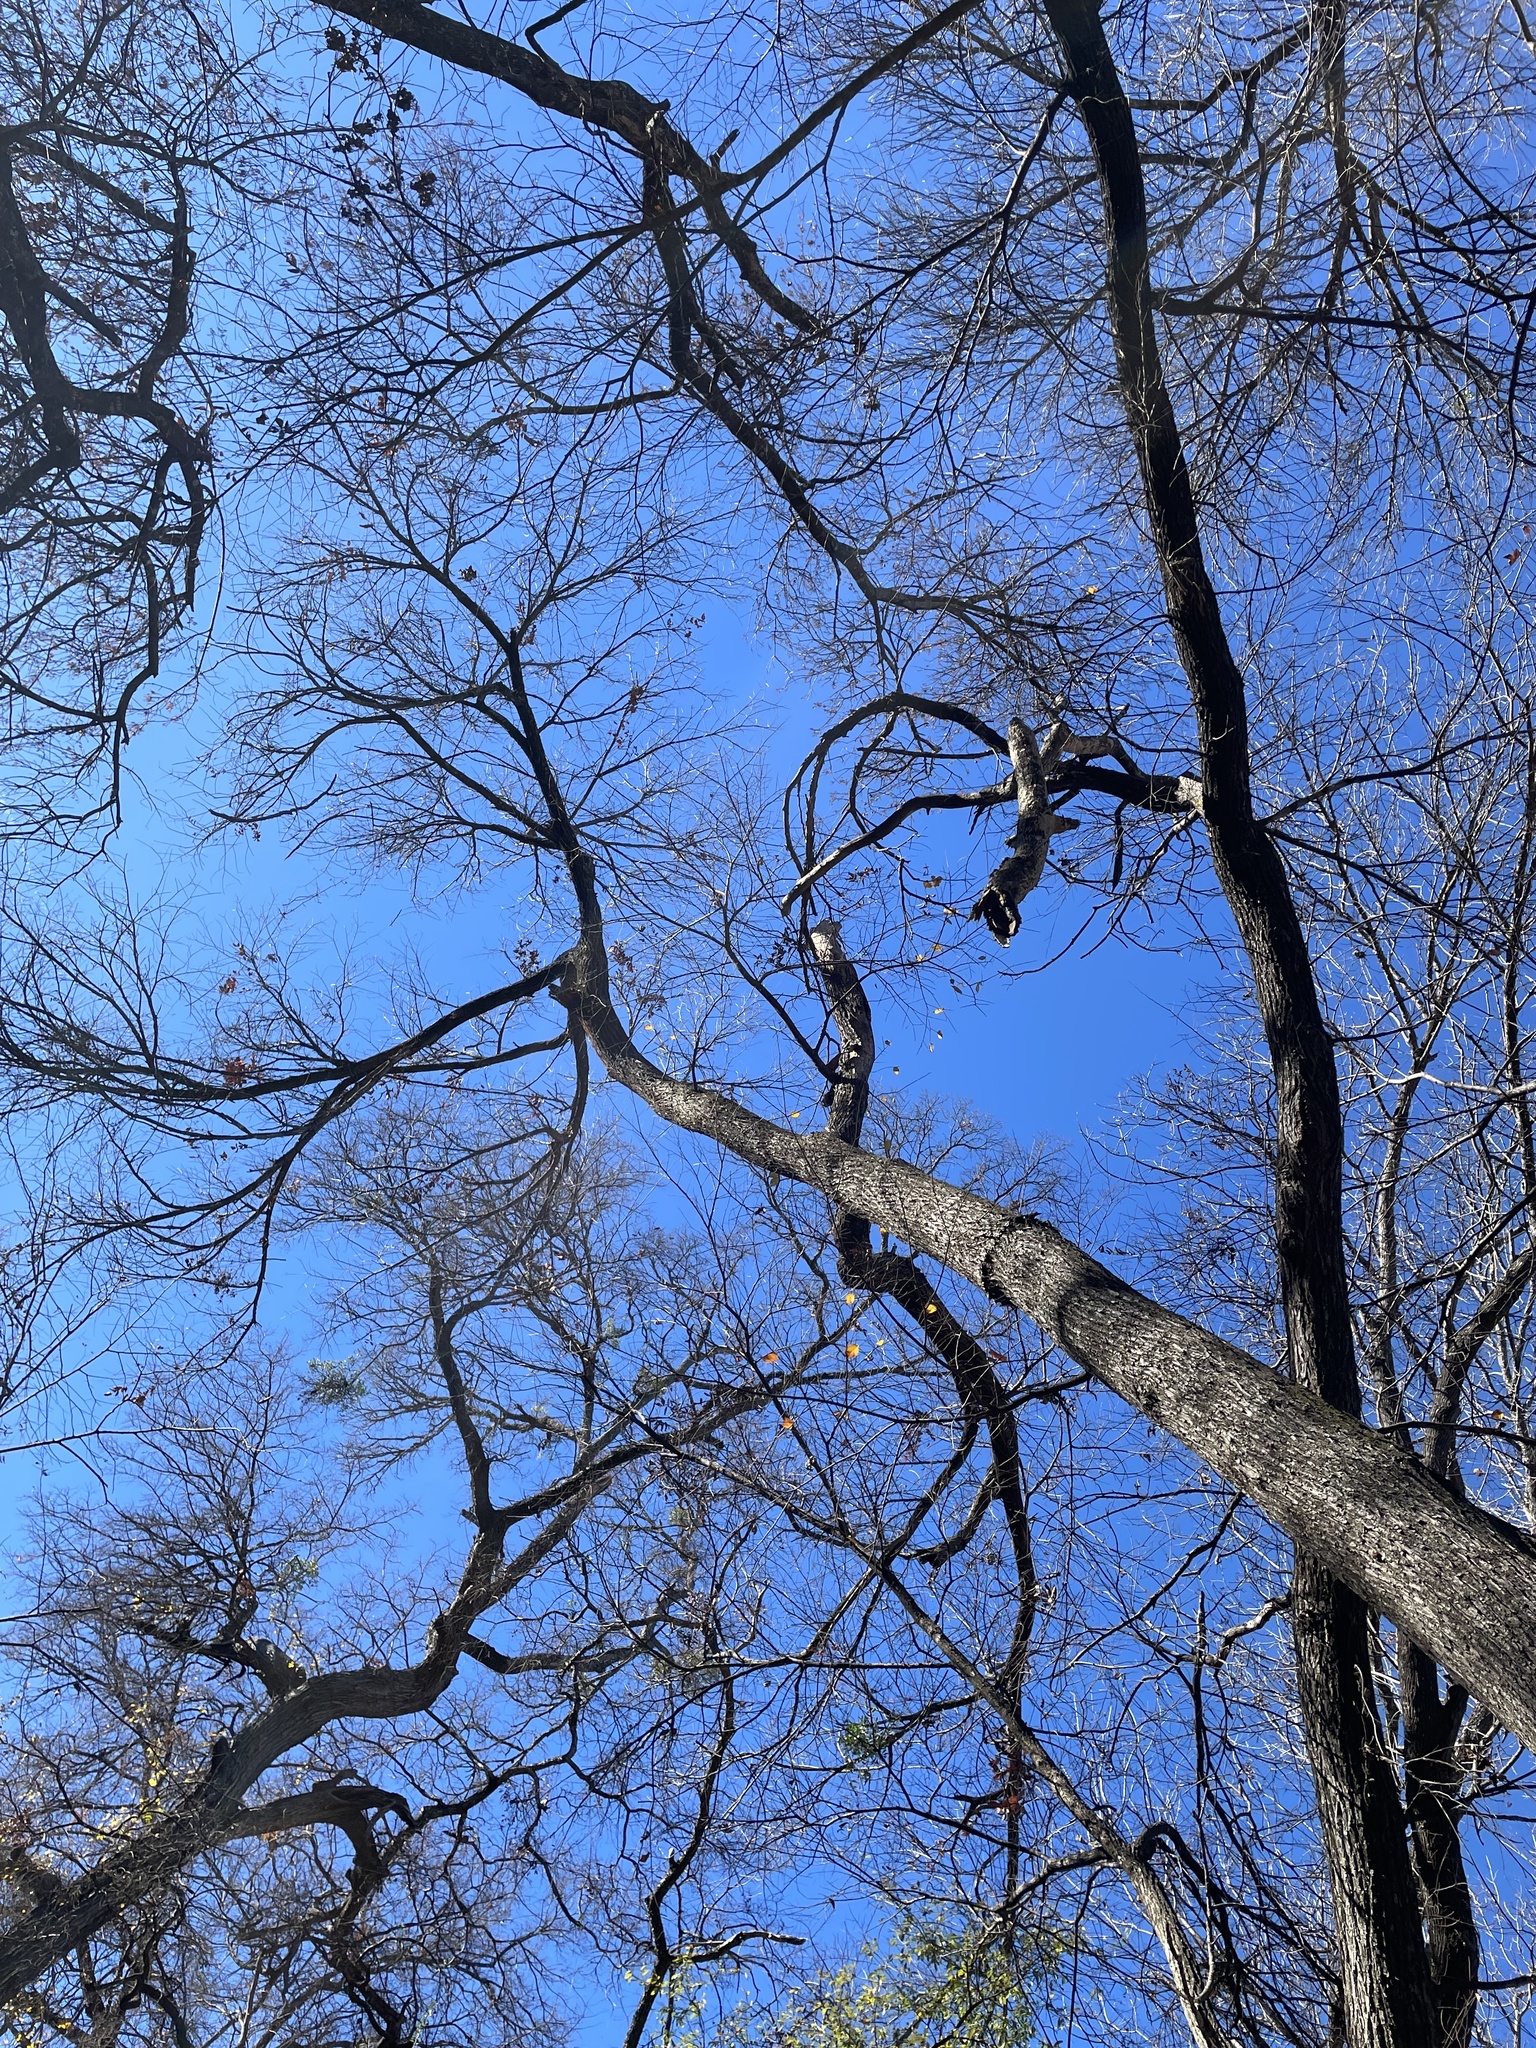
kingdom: Plantae
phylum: Tracheophyta
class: Magnoliopsida
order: Rosales
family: Ulmaceae
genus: Ulmus
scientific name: Ulmus americana
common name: American elm
